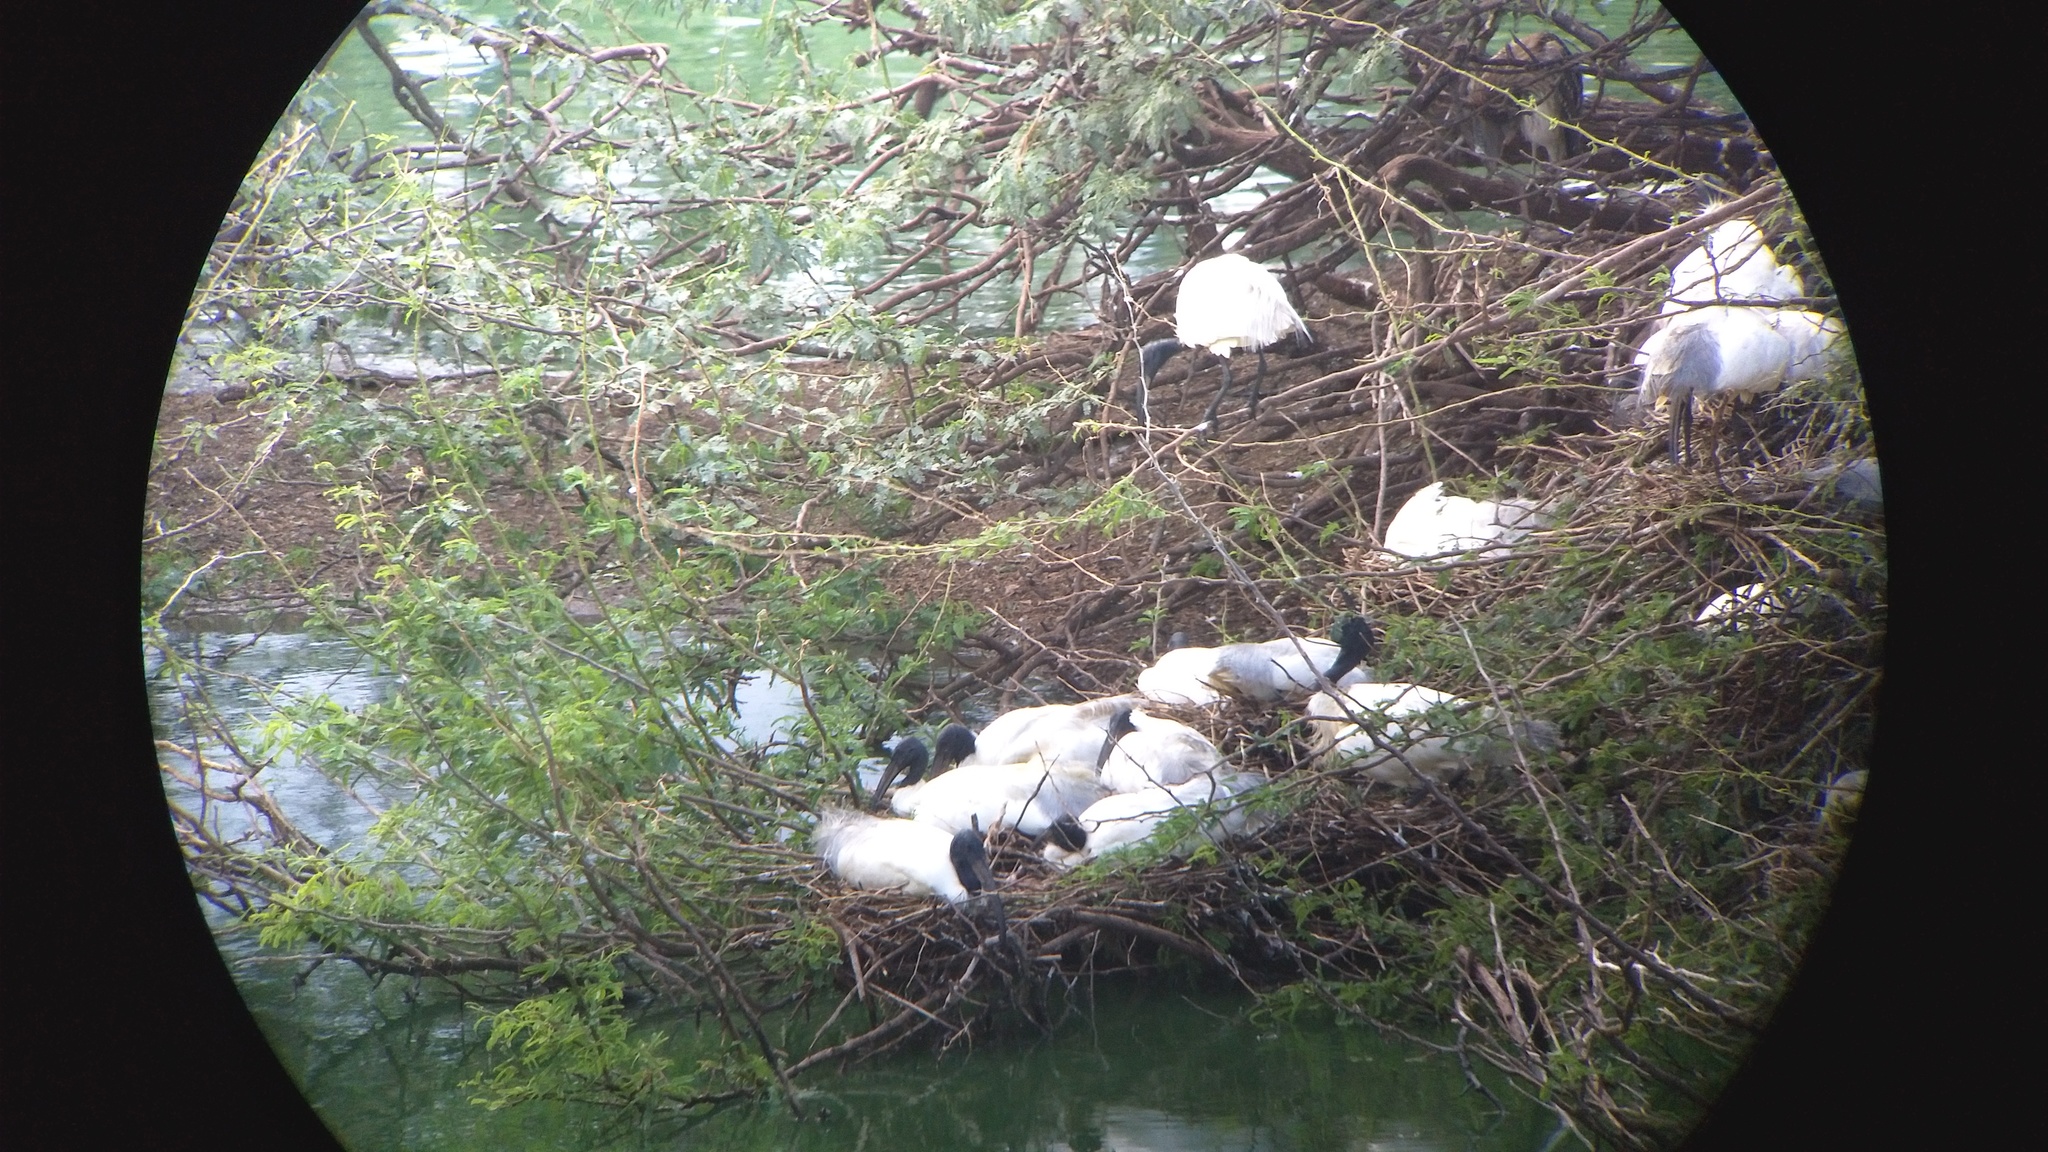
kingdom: Animalia
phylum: Chordata
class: Aves
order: Pelecaniformes
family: Threskiornithidae
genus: Threskiornis
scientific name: Threskiornis melanocephalus
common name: Black-headed ibis
